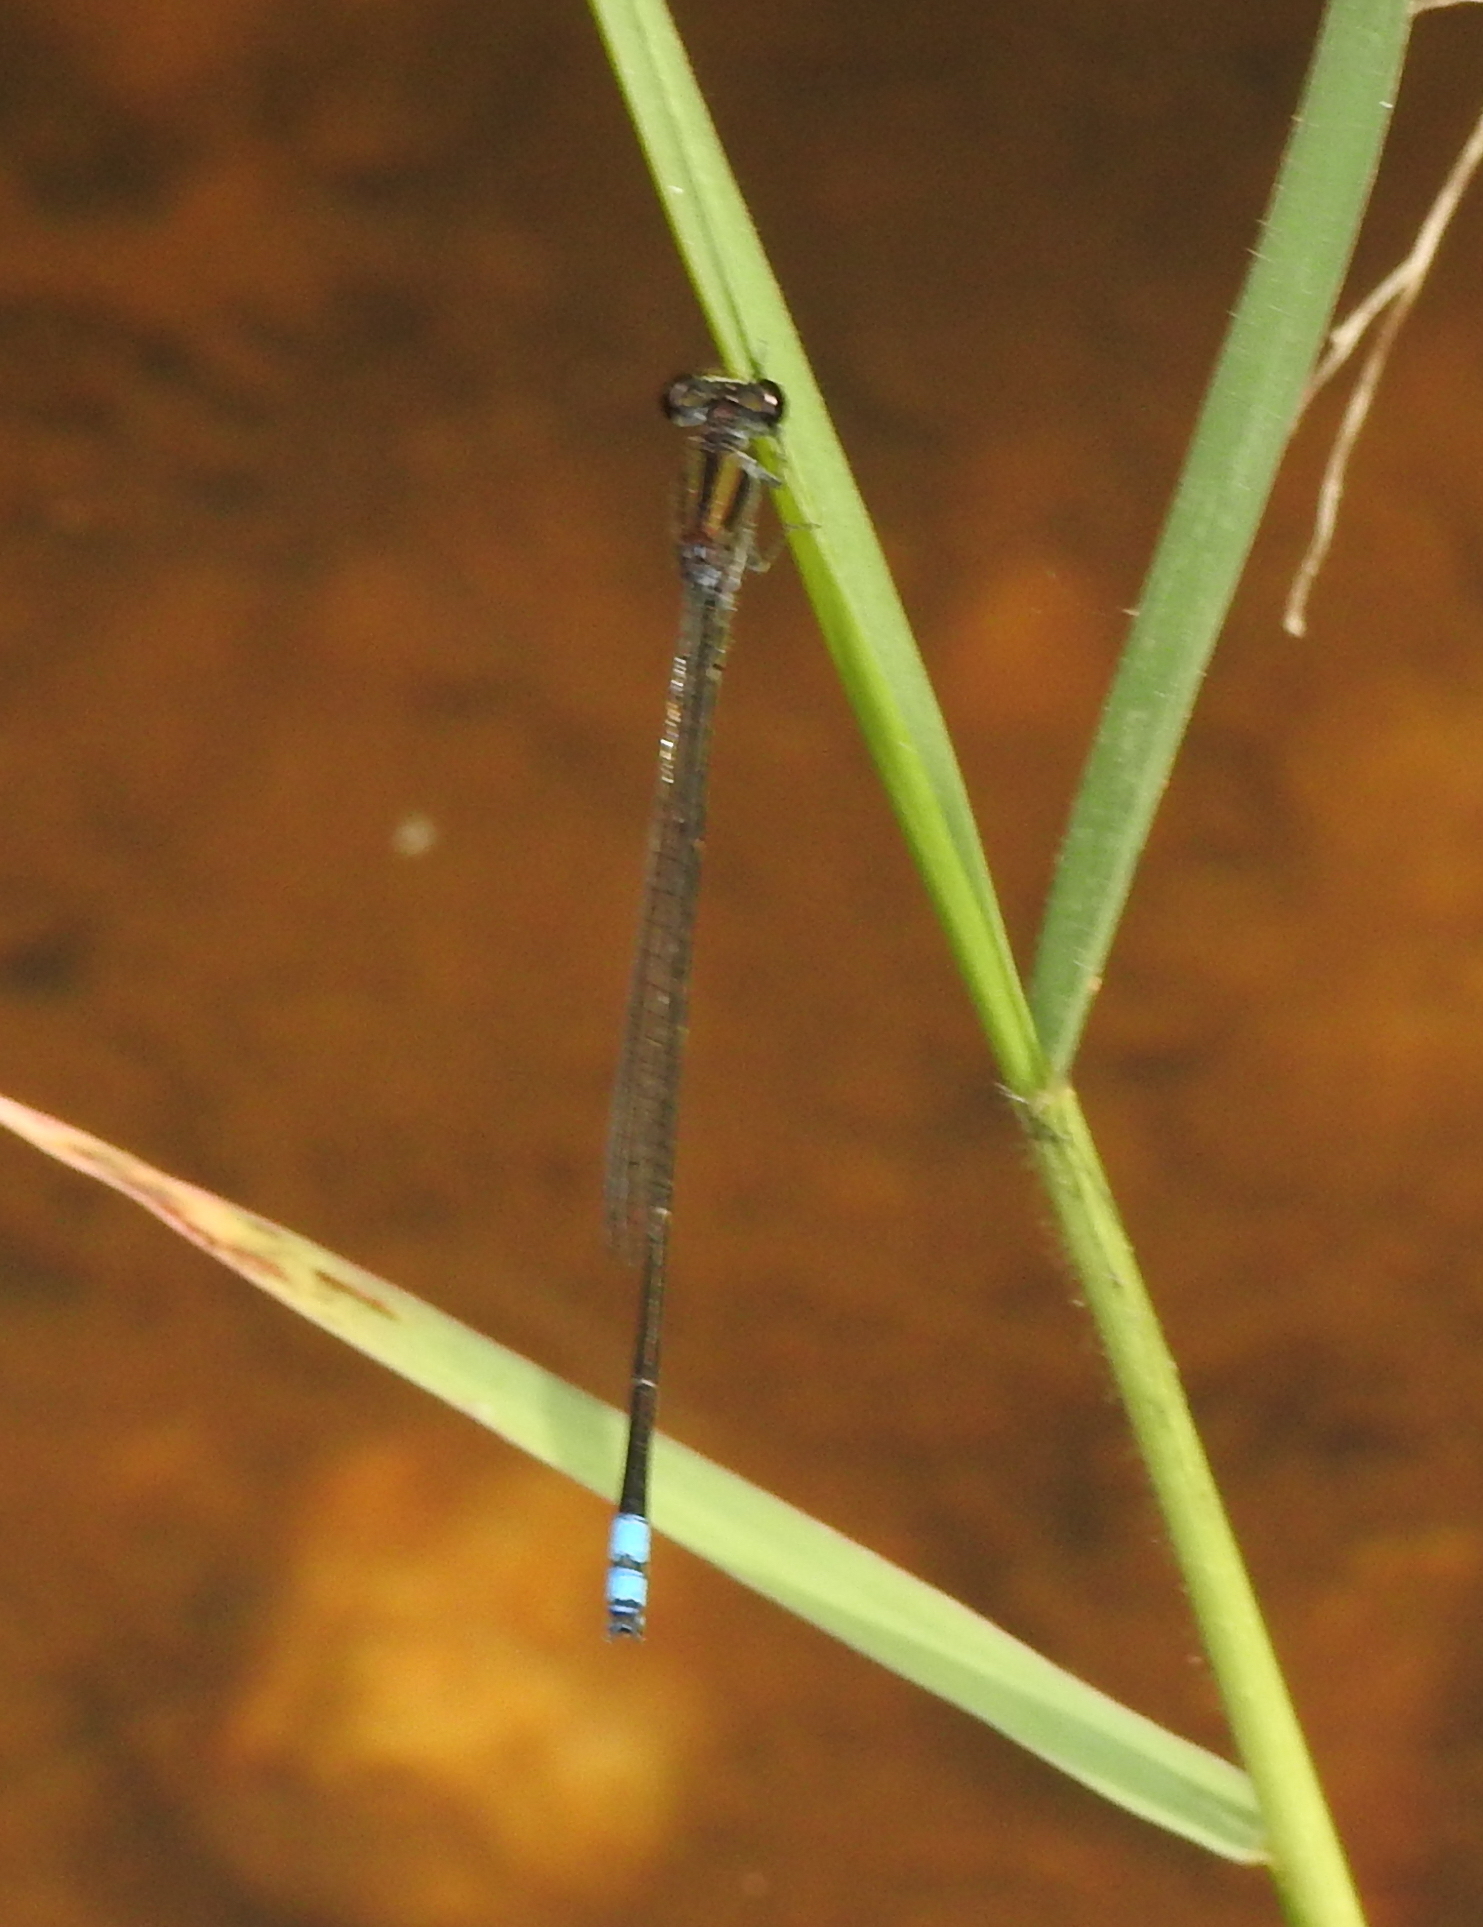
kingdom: Animalia
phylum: Arthropoda
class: Insecta
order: Odonata
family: Coenagrionidae
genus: Pseudagrion
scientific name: Pseudagrion indicum
